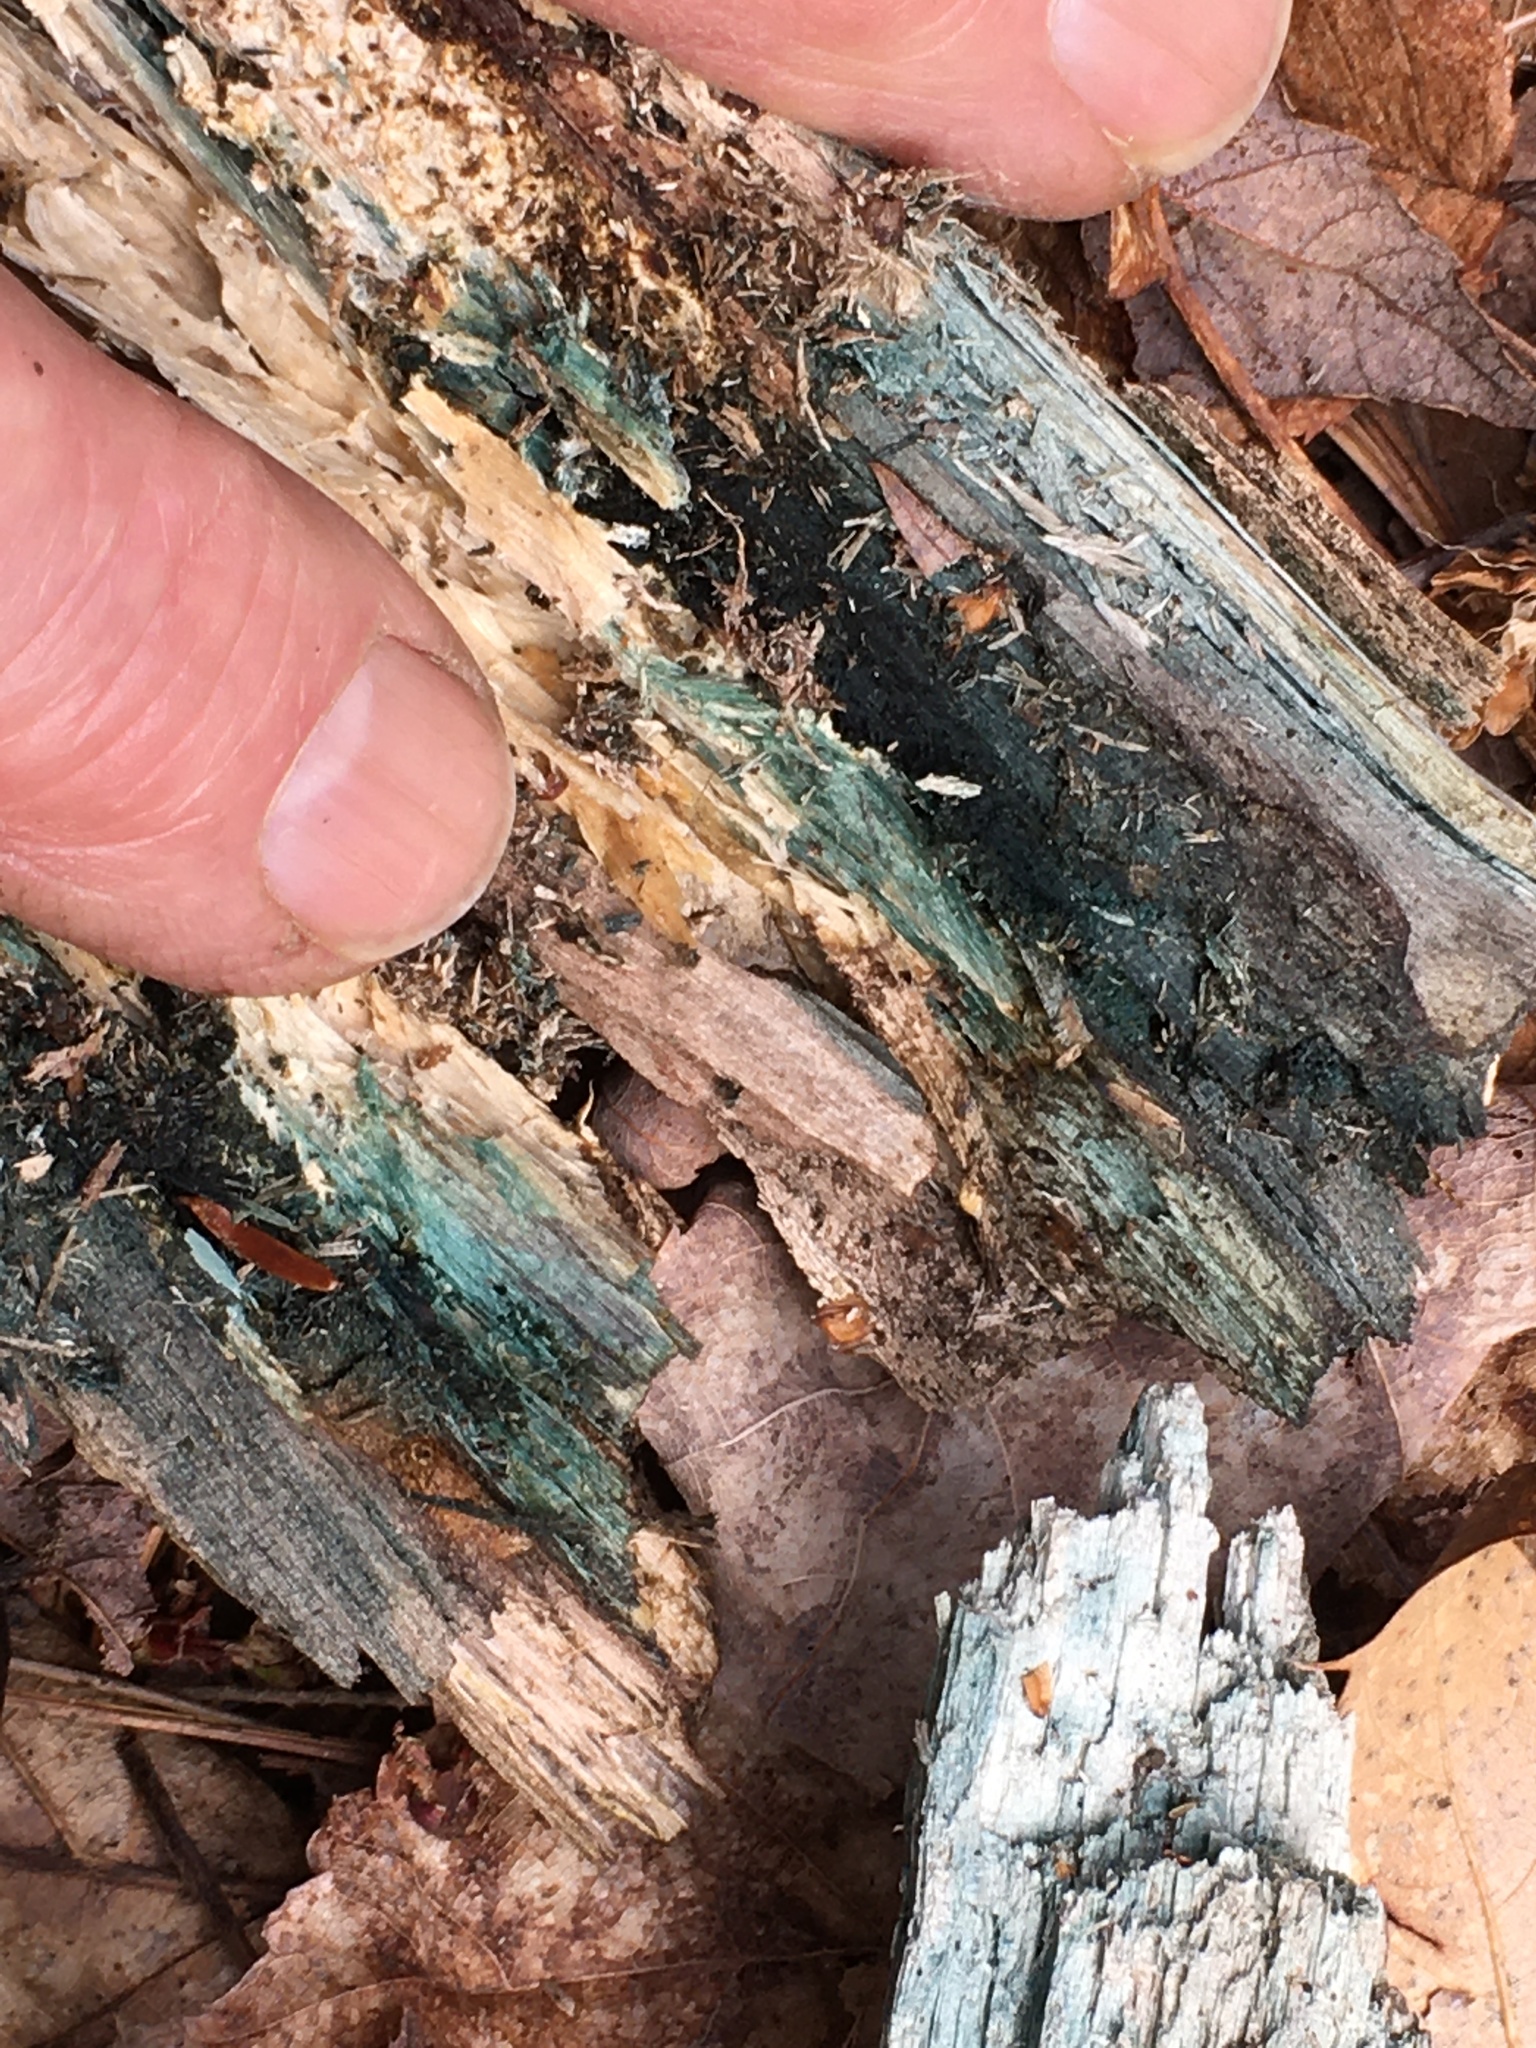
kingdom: Fungi
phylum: Ascomycota
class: Leotiomycetes
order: Helotiales
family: Chlorociboriaceae
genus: Chlorociboria
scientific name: Chlorociboria
